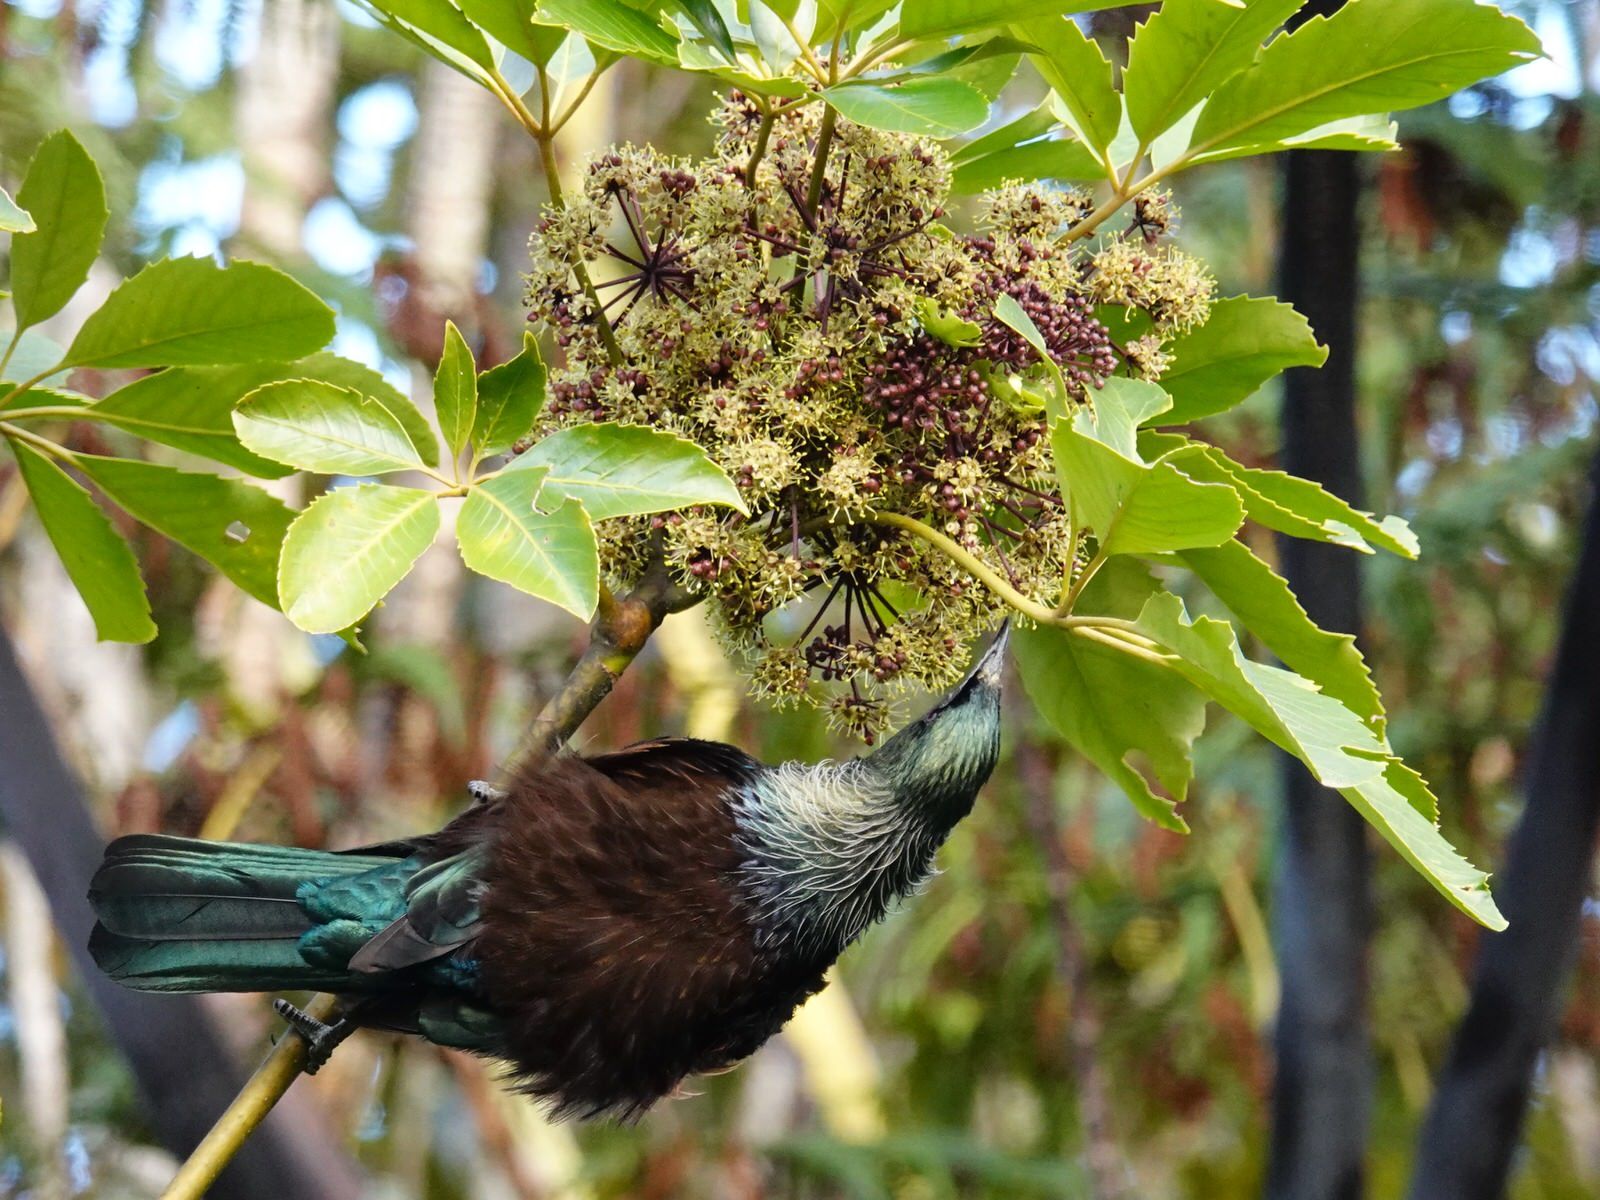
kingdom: Animalia
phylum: Chordata
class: Aves
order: Passeriformes
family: Meliphagidae
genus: Prosthemadera
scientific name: Prosthemadera novaeseelandiae
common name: Tui
